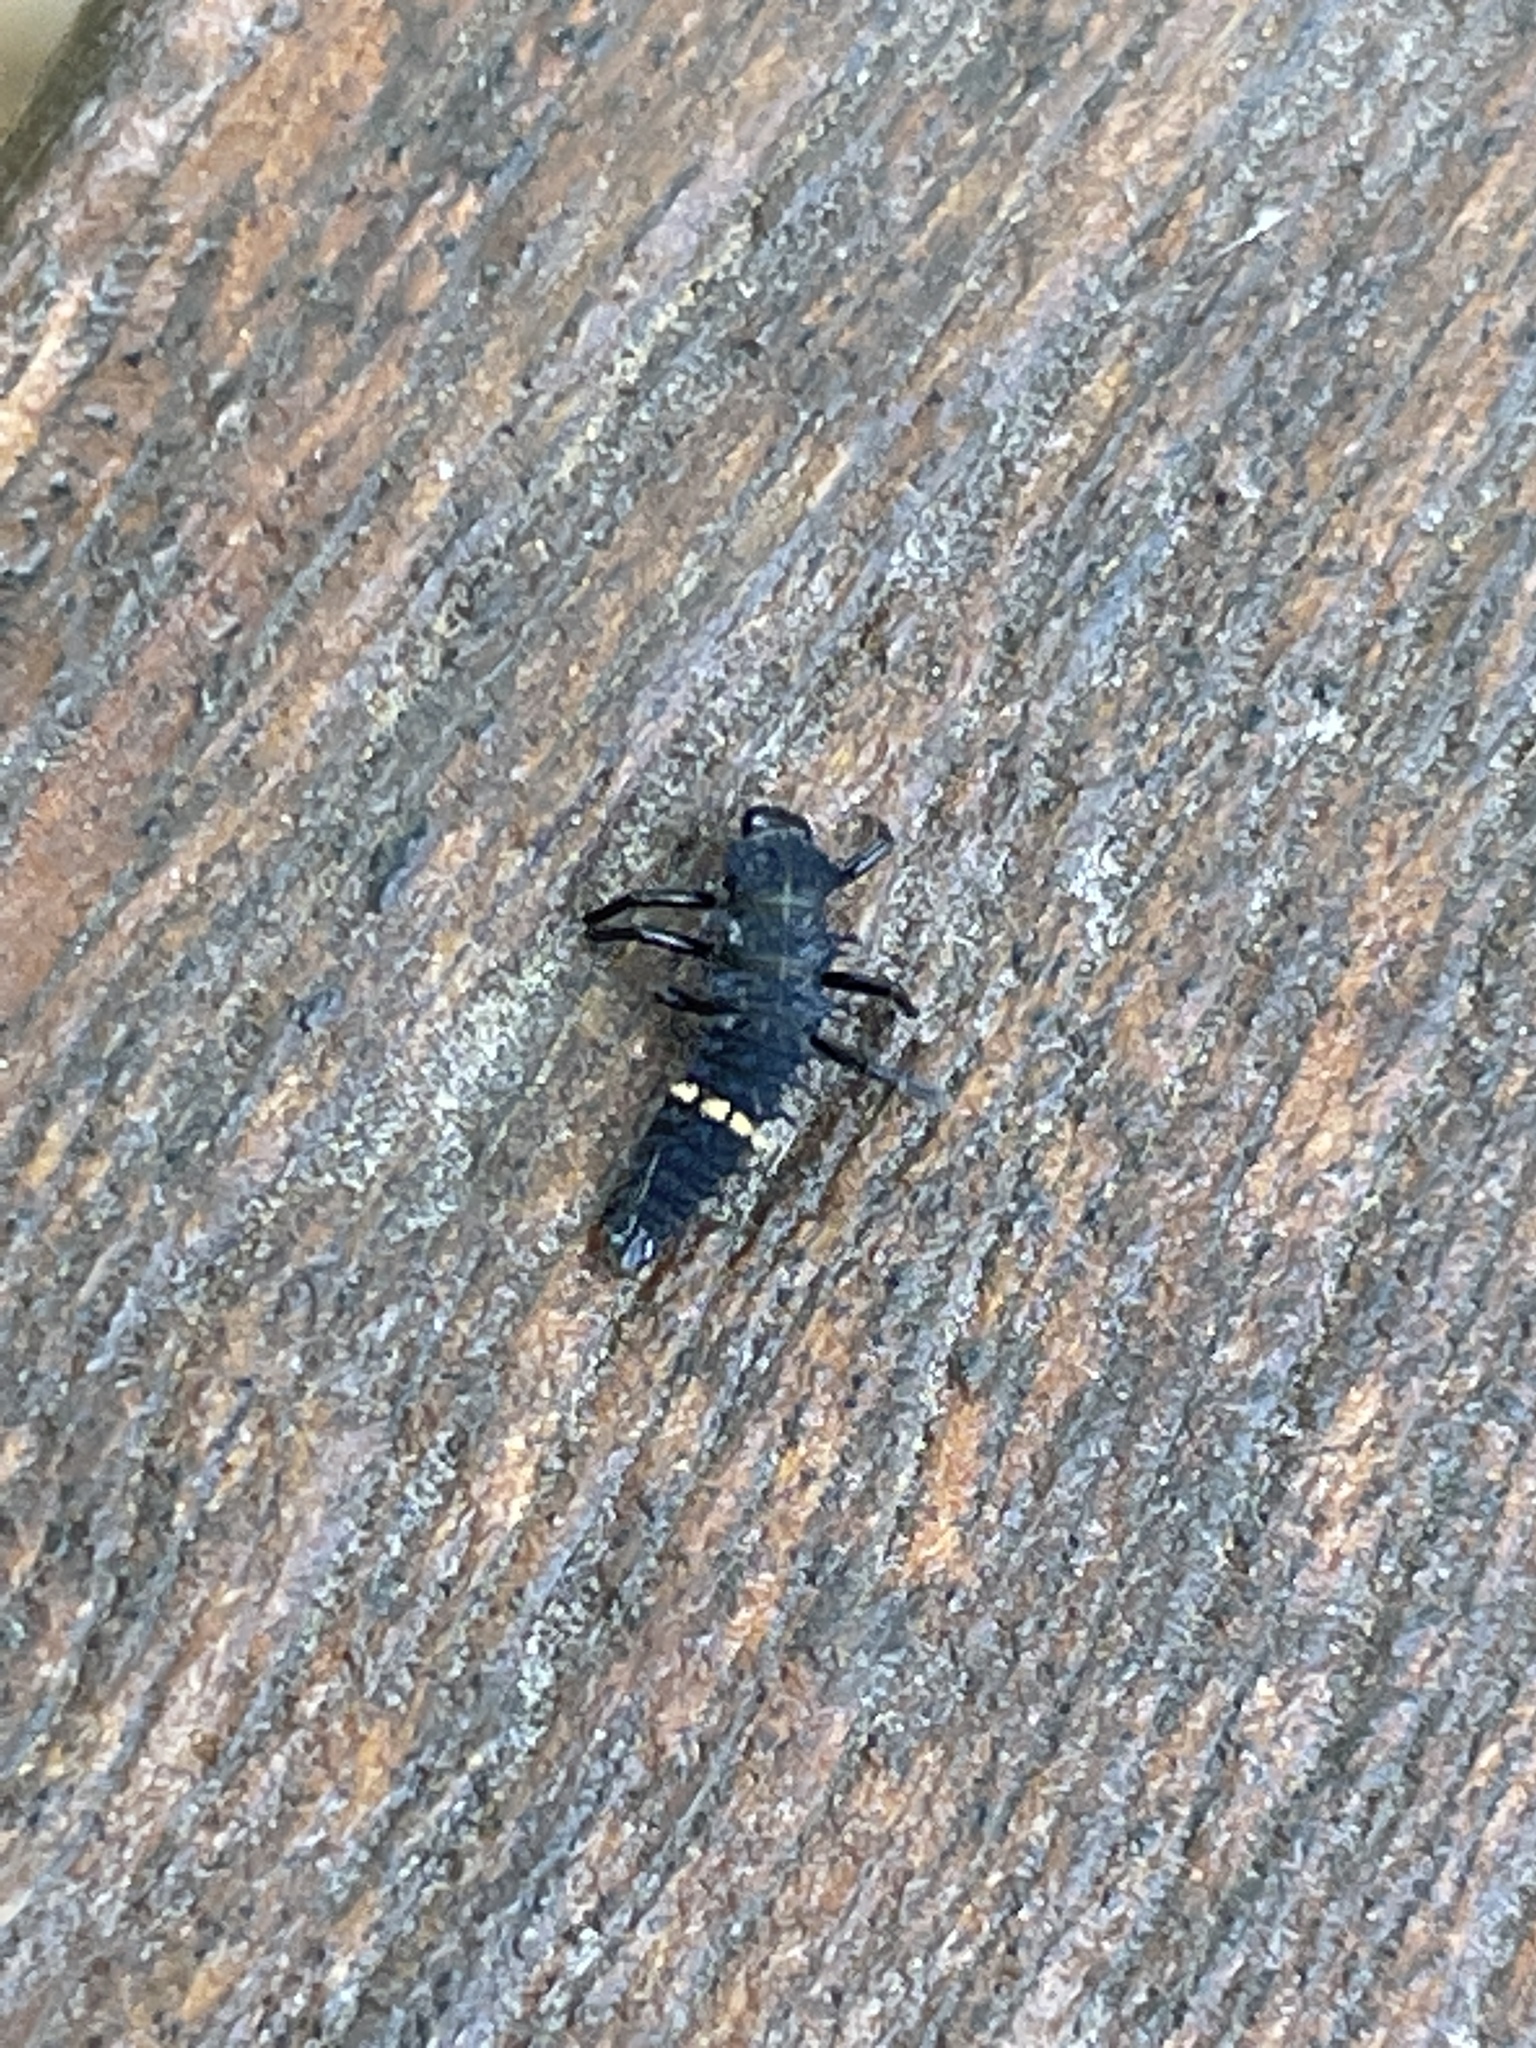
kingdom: Animalia
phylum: Arthropoda
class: Insecta
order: Coleoptera
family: Coccinellidae
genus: Harmonia
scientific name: Harmonia conformis
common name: Common spotted ladybird beetle
